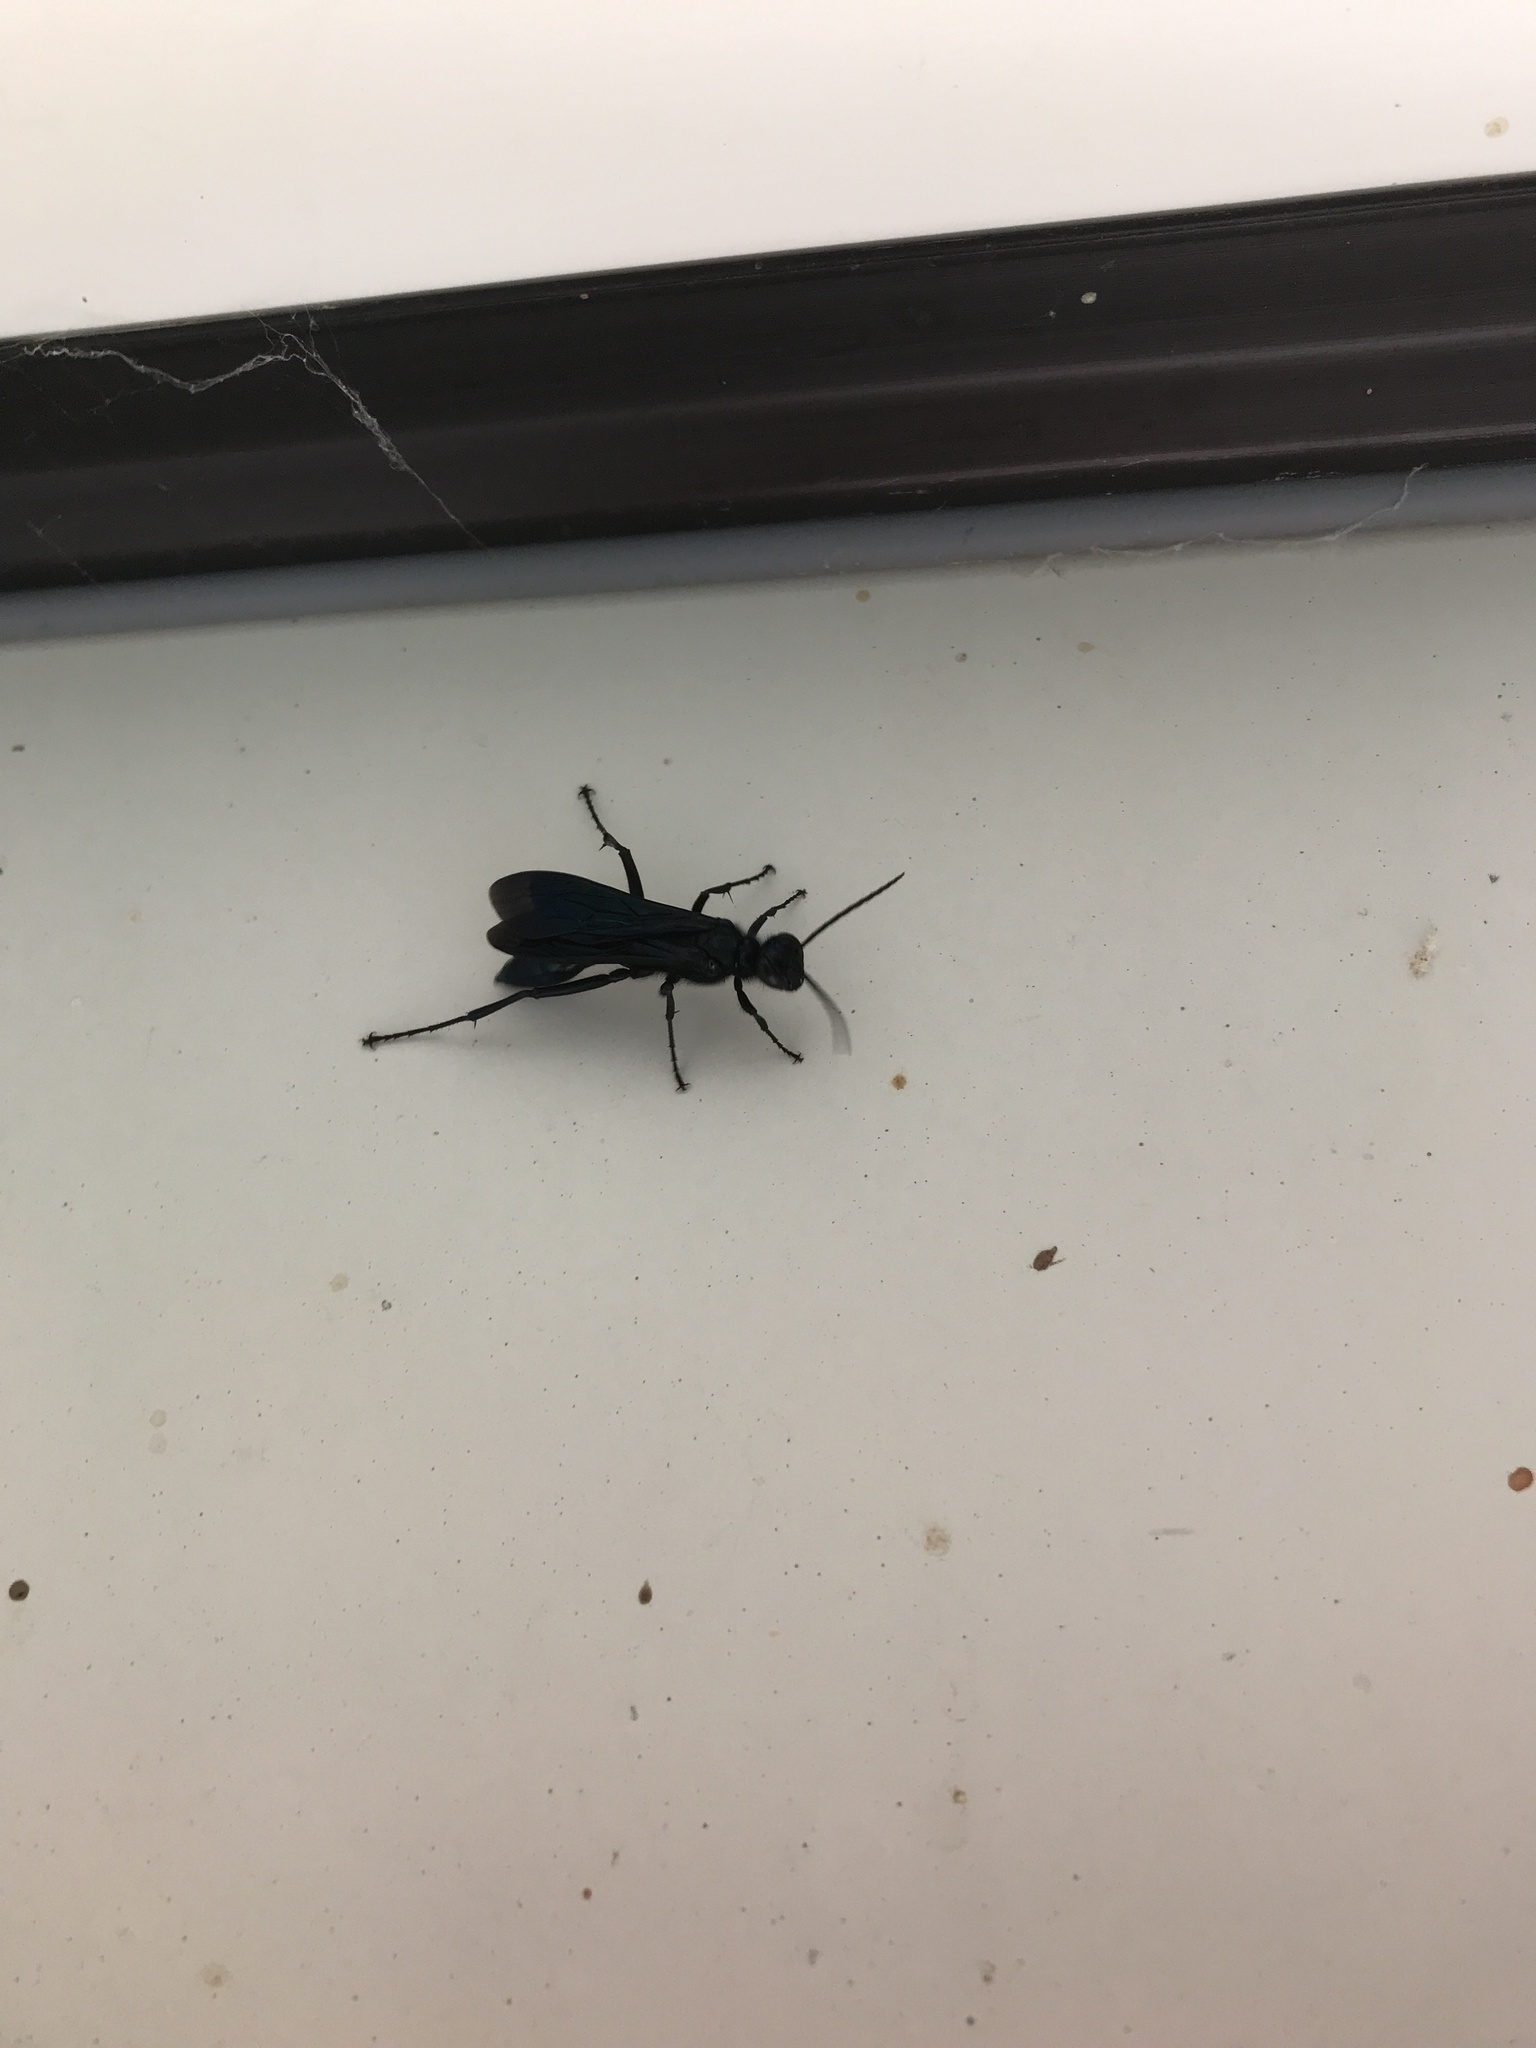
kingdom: Animalia
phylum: Arthropoda
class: Insecta
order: Hymenoptera
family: Sphecidae
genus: Chalybion
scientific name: Chalybion californicum
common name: Mud dauber
